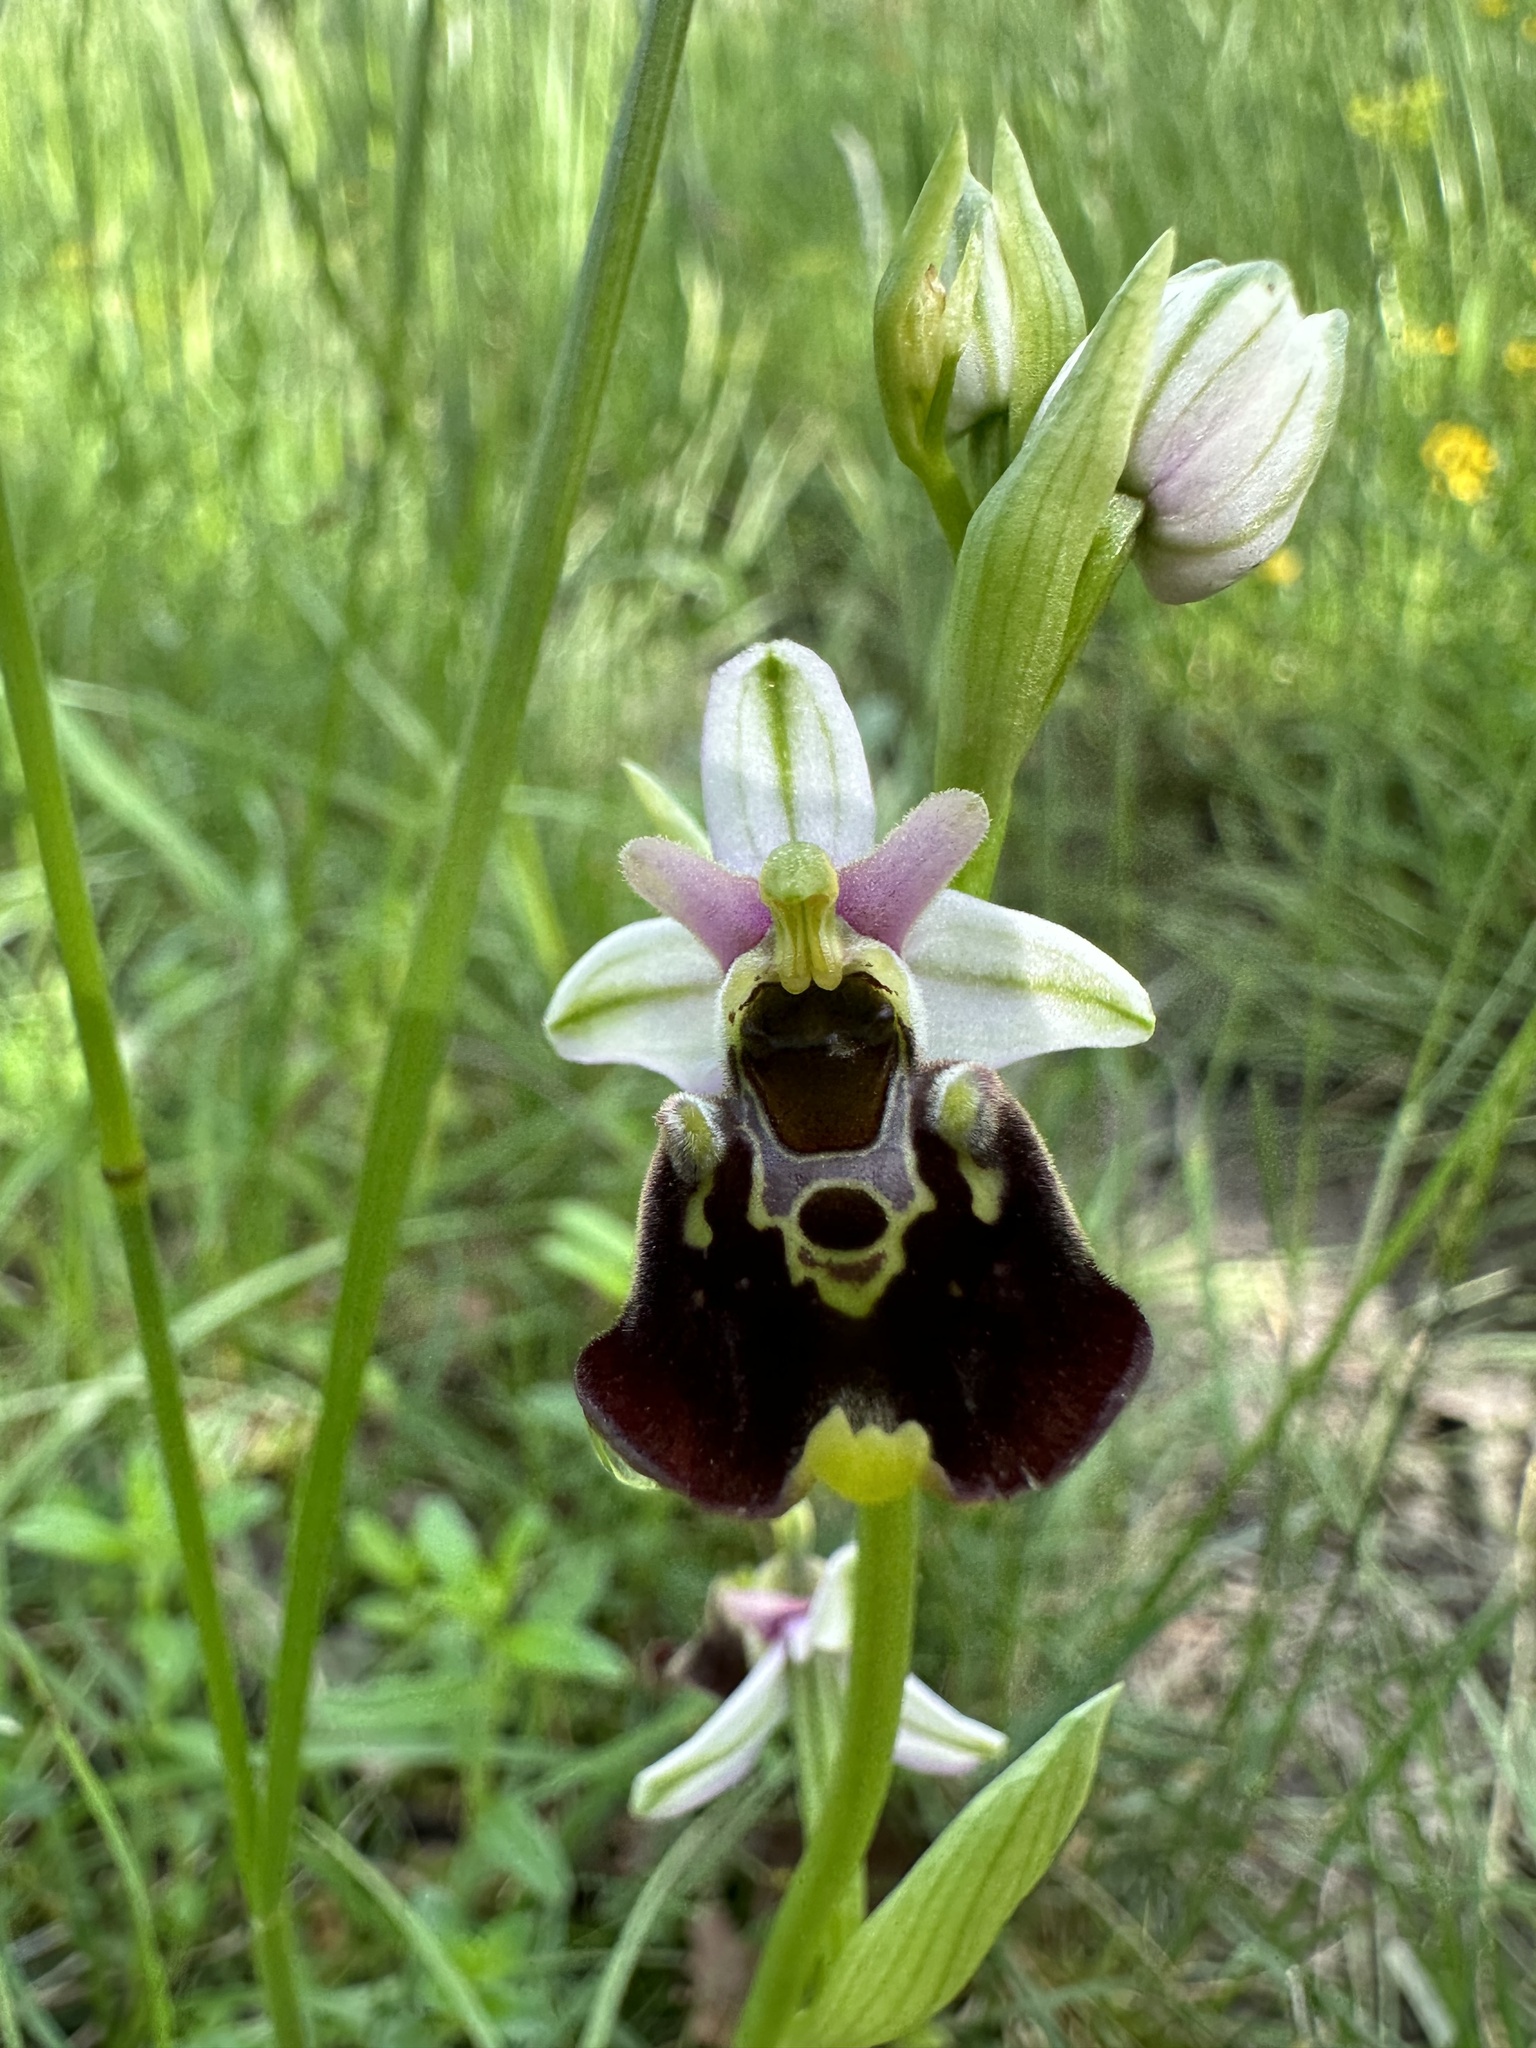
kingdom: Plantae
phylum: Tracheophyta
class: Liliopsida
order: Asparagales
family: Orchidaceae
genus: Ophrys
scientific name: Ophrys holosericea
